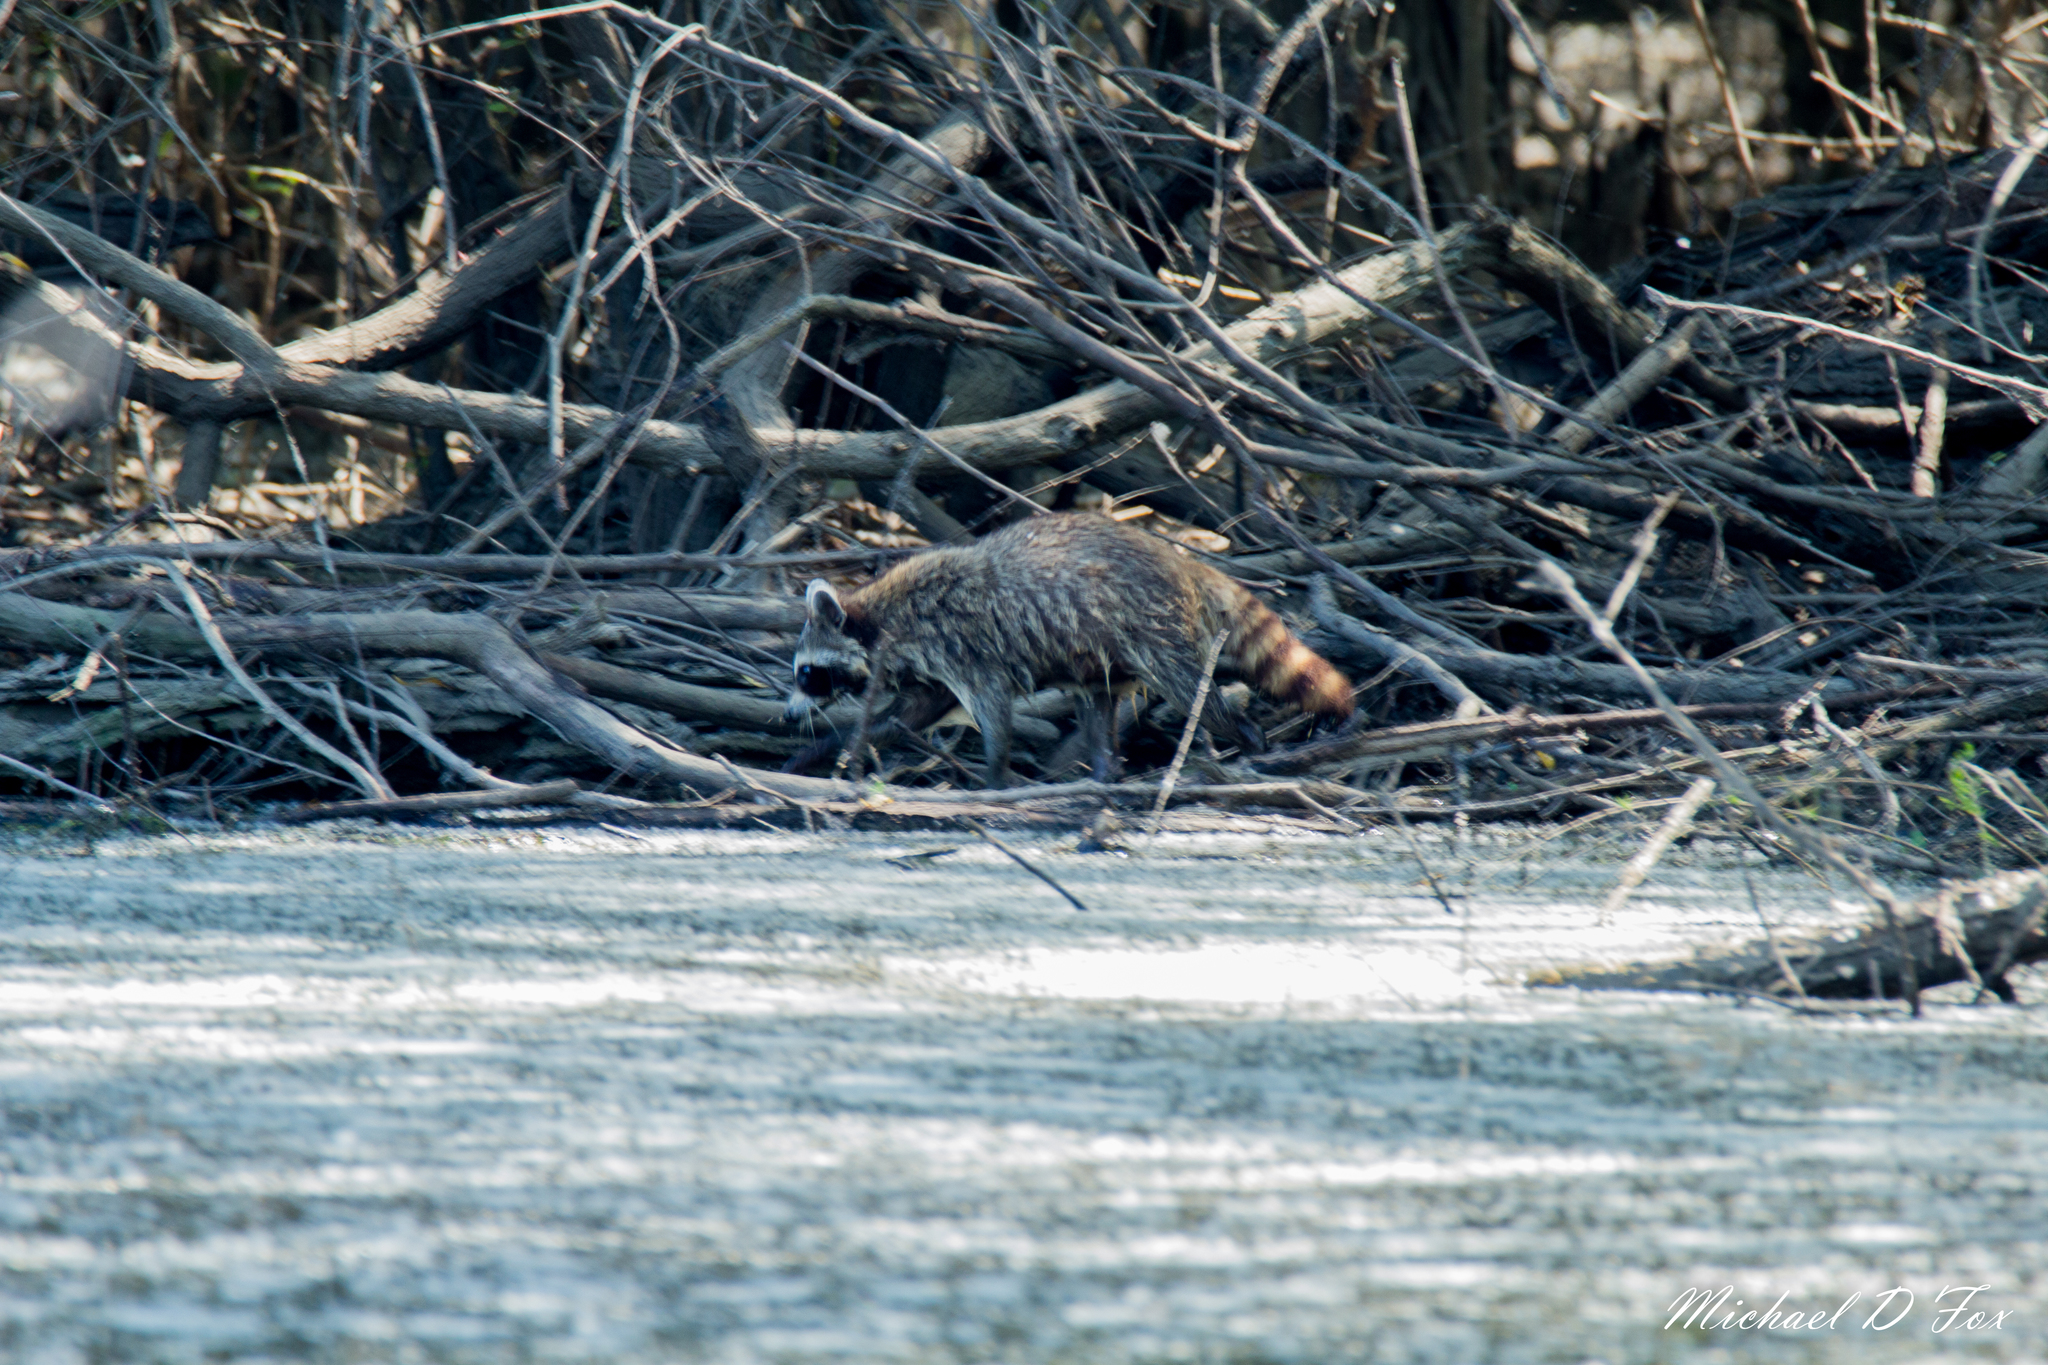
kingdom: Animalia
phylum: Chordata
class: Mammalia
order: Carnivora
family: Procyonidae
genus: Procyon
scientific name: Procyon lotor
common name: Raccoon
